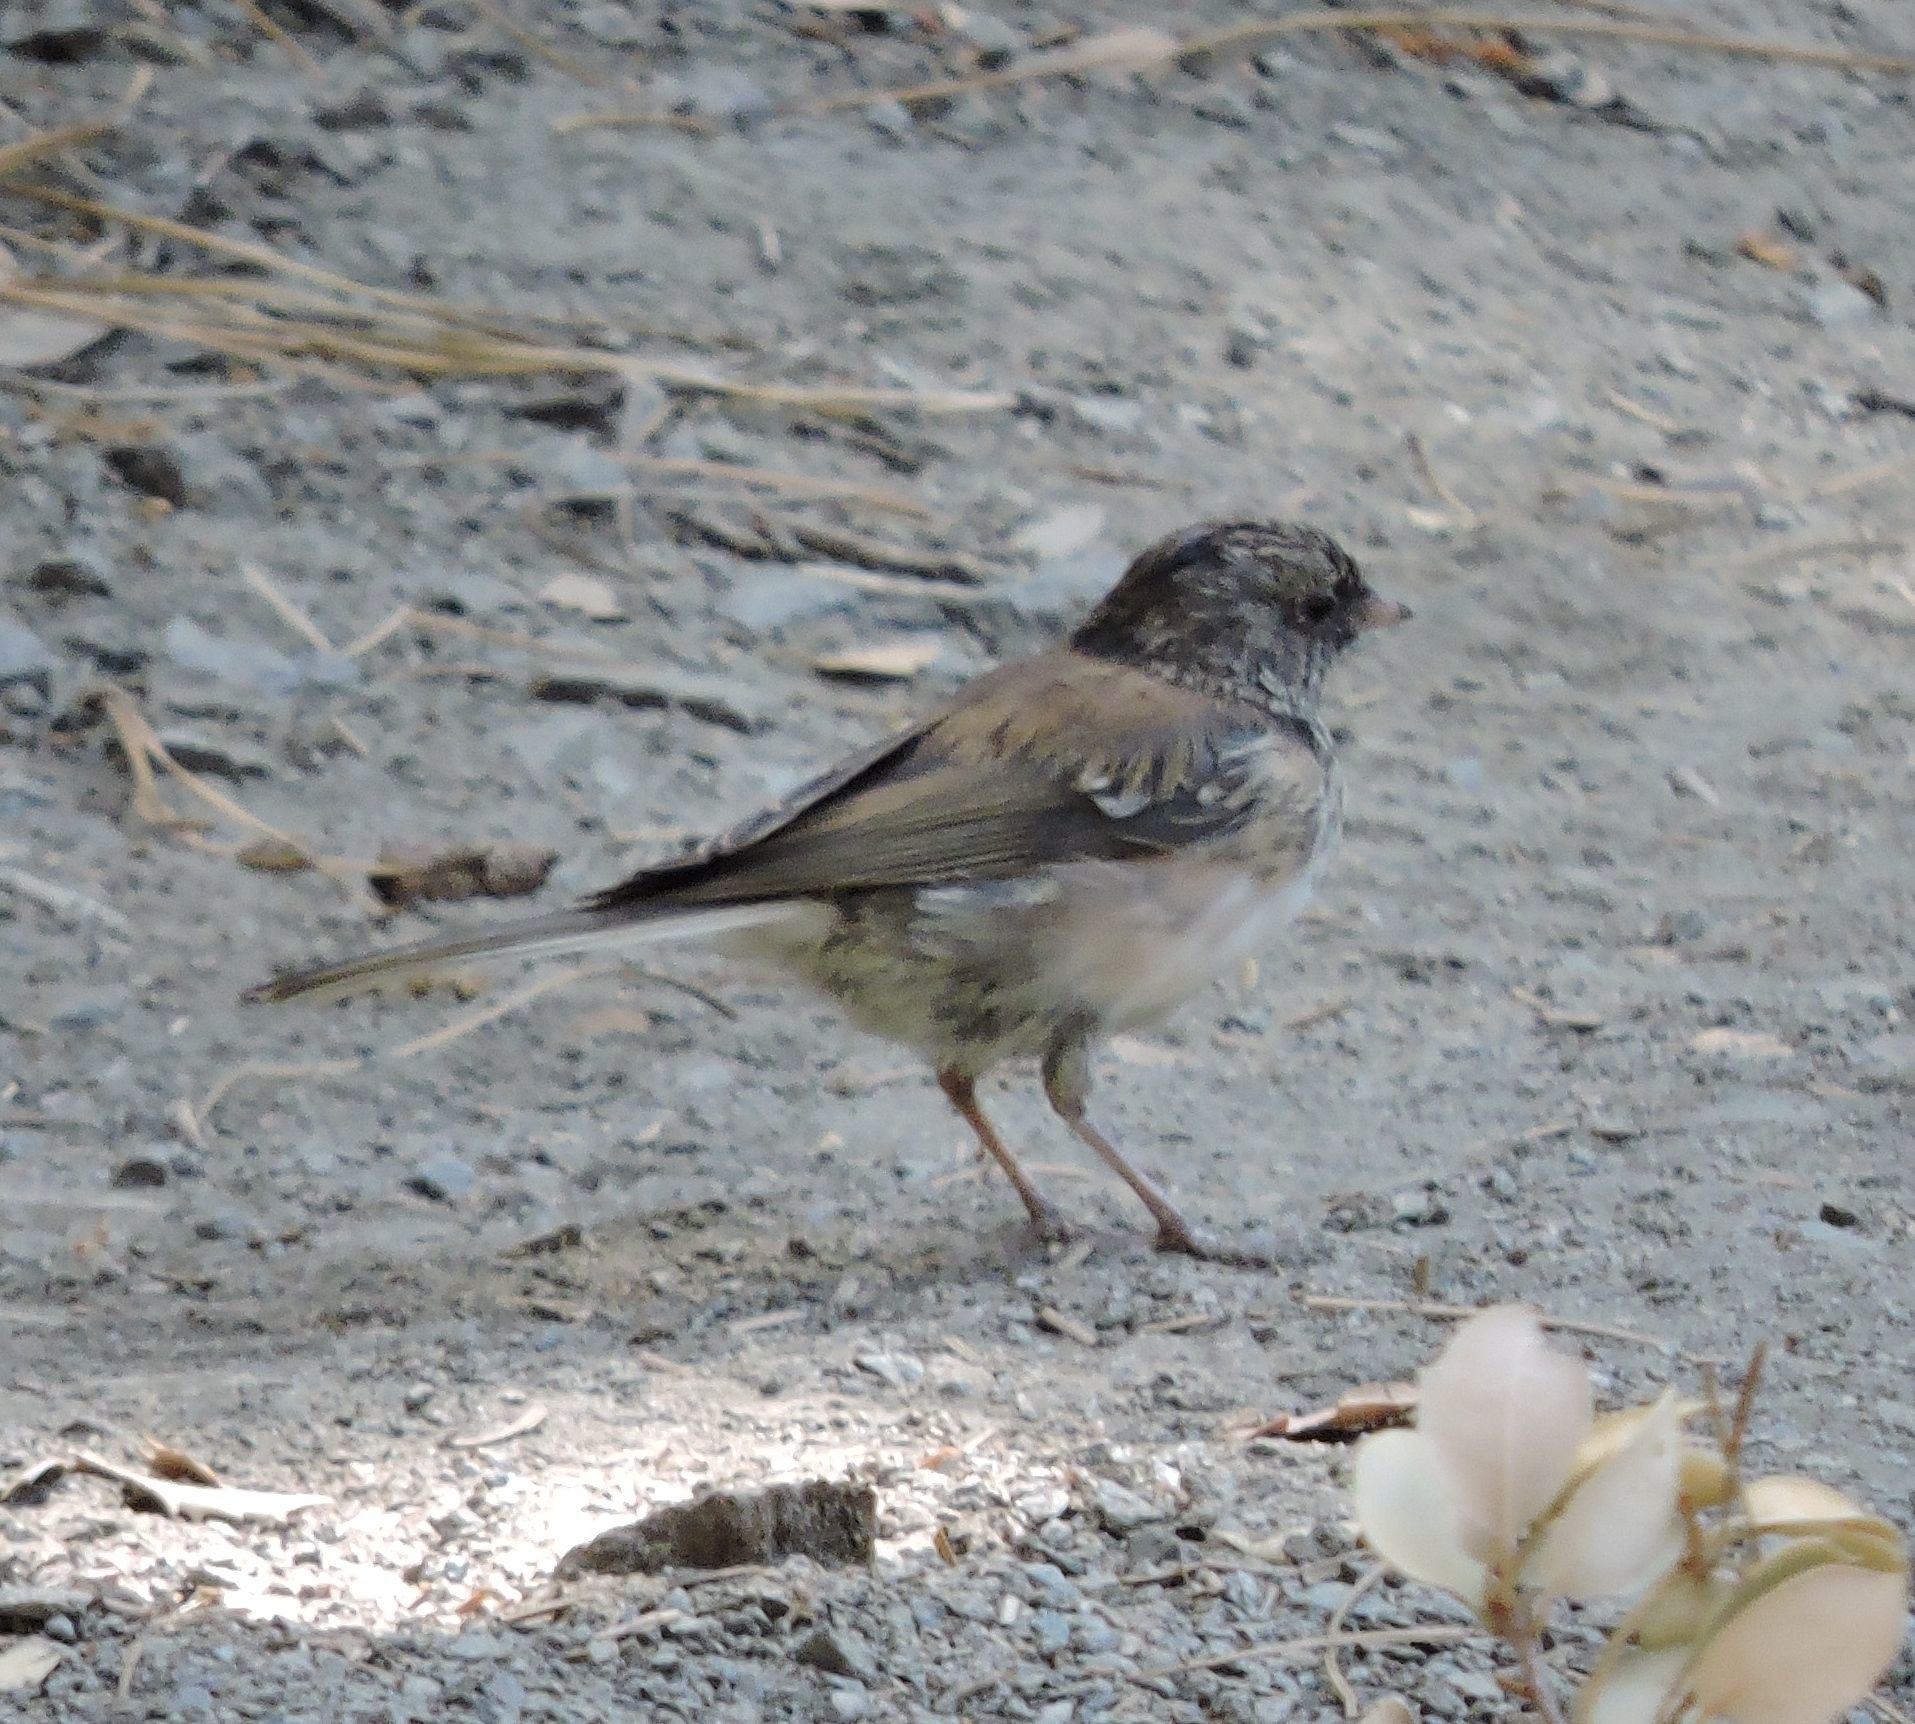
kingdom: Animalia
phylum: Chordata
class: Aves
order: Passeriformes
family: Passerellidae
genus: Junco
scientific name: Junco hyemalis
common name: Dark-eyed junco
